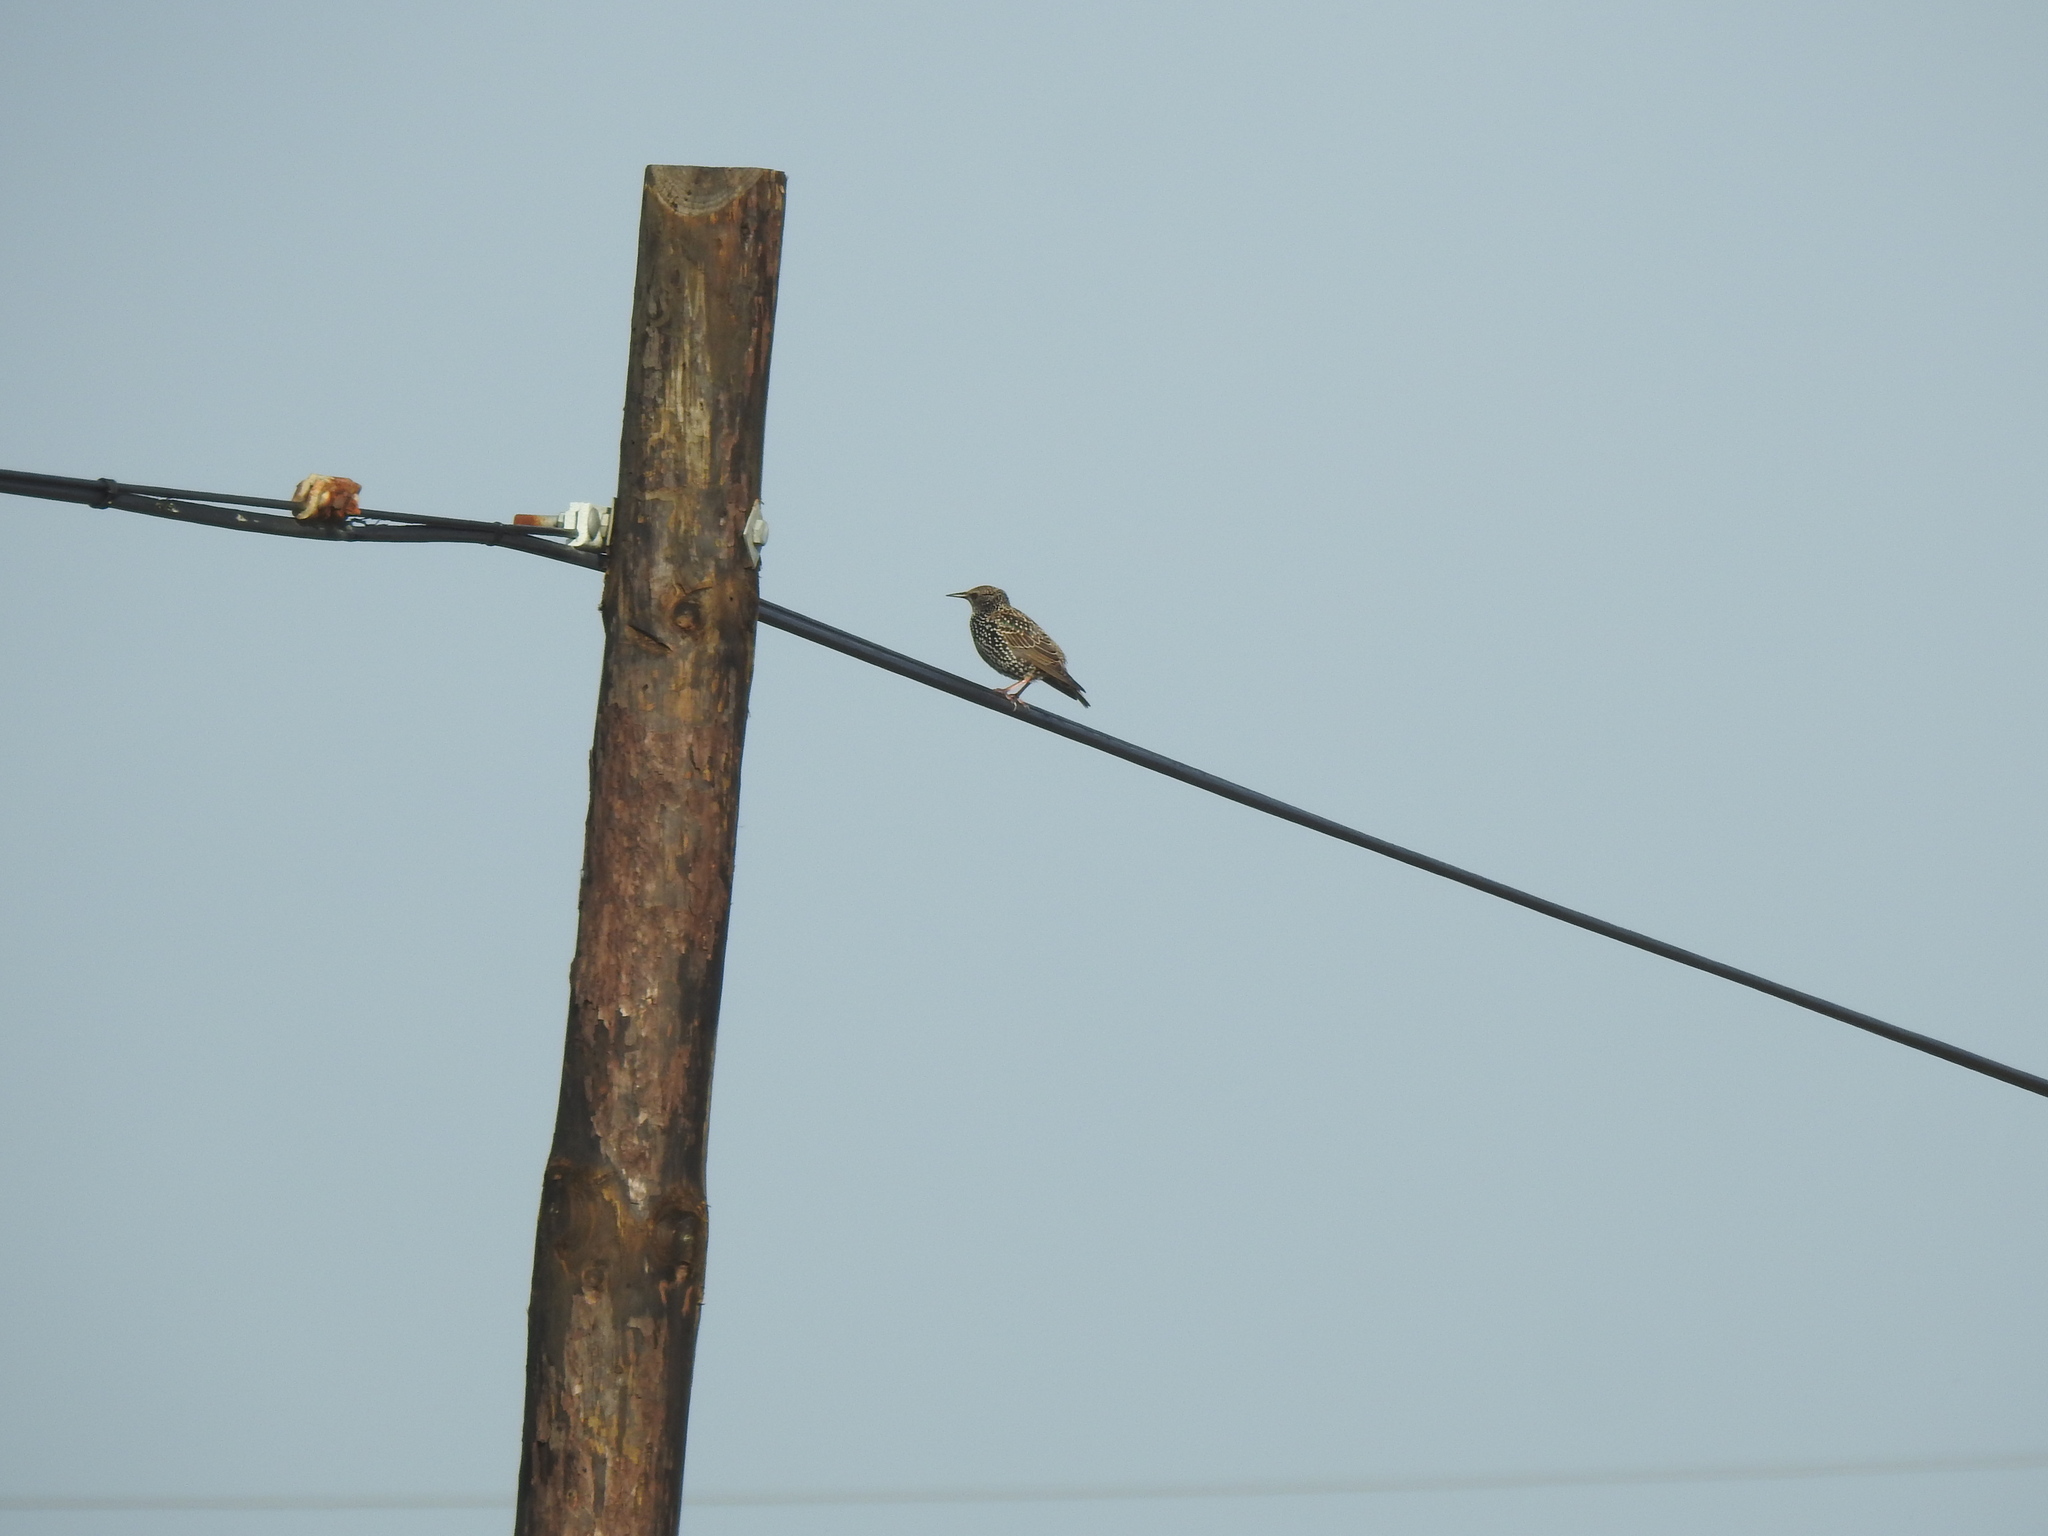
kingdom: Animalia
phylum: Chordata
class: Aves
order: Passeriformes
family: Sturnidae
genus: Sturnus
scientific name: Sturnus vulgaris
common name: Common starling
